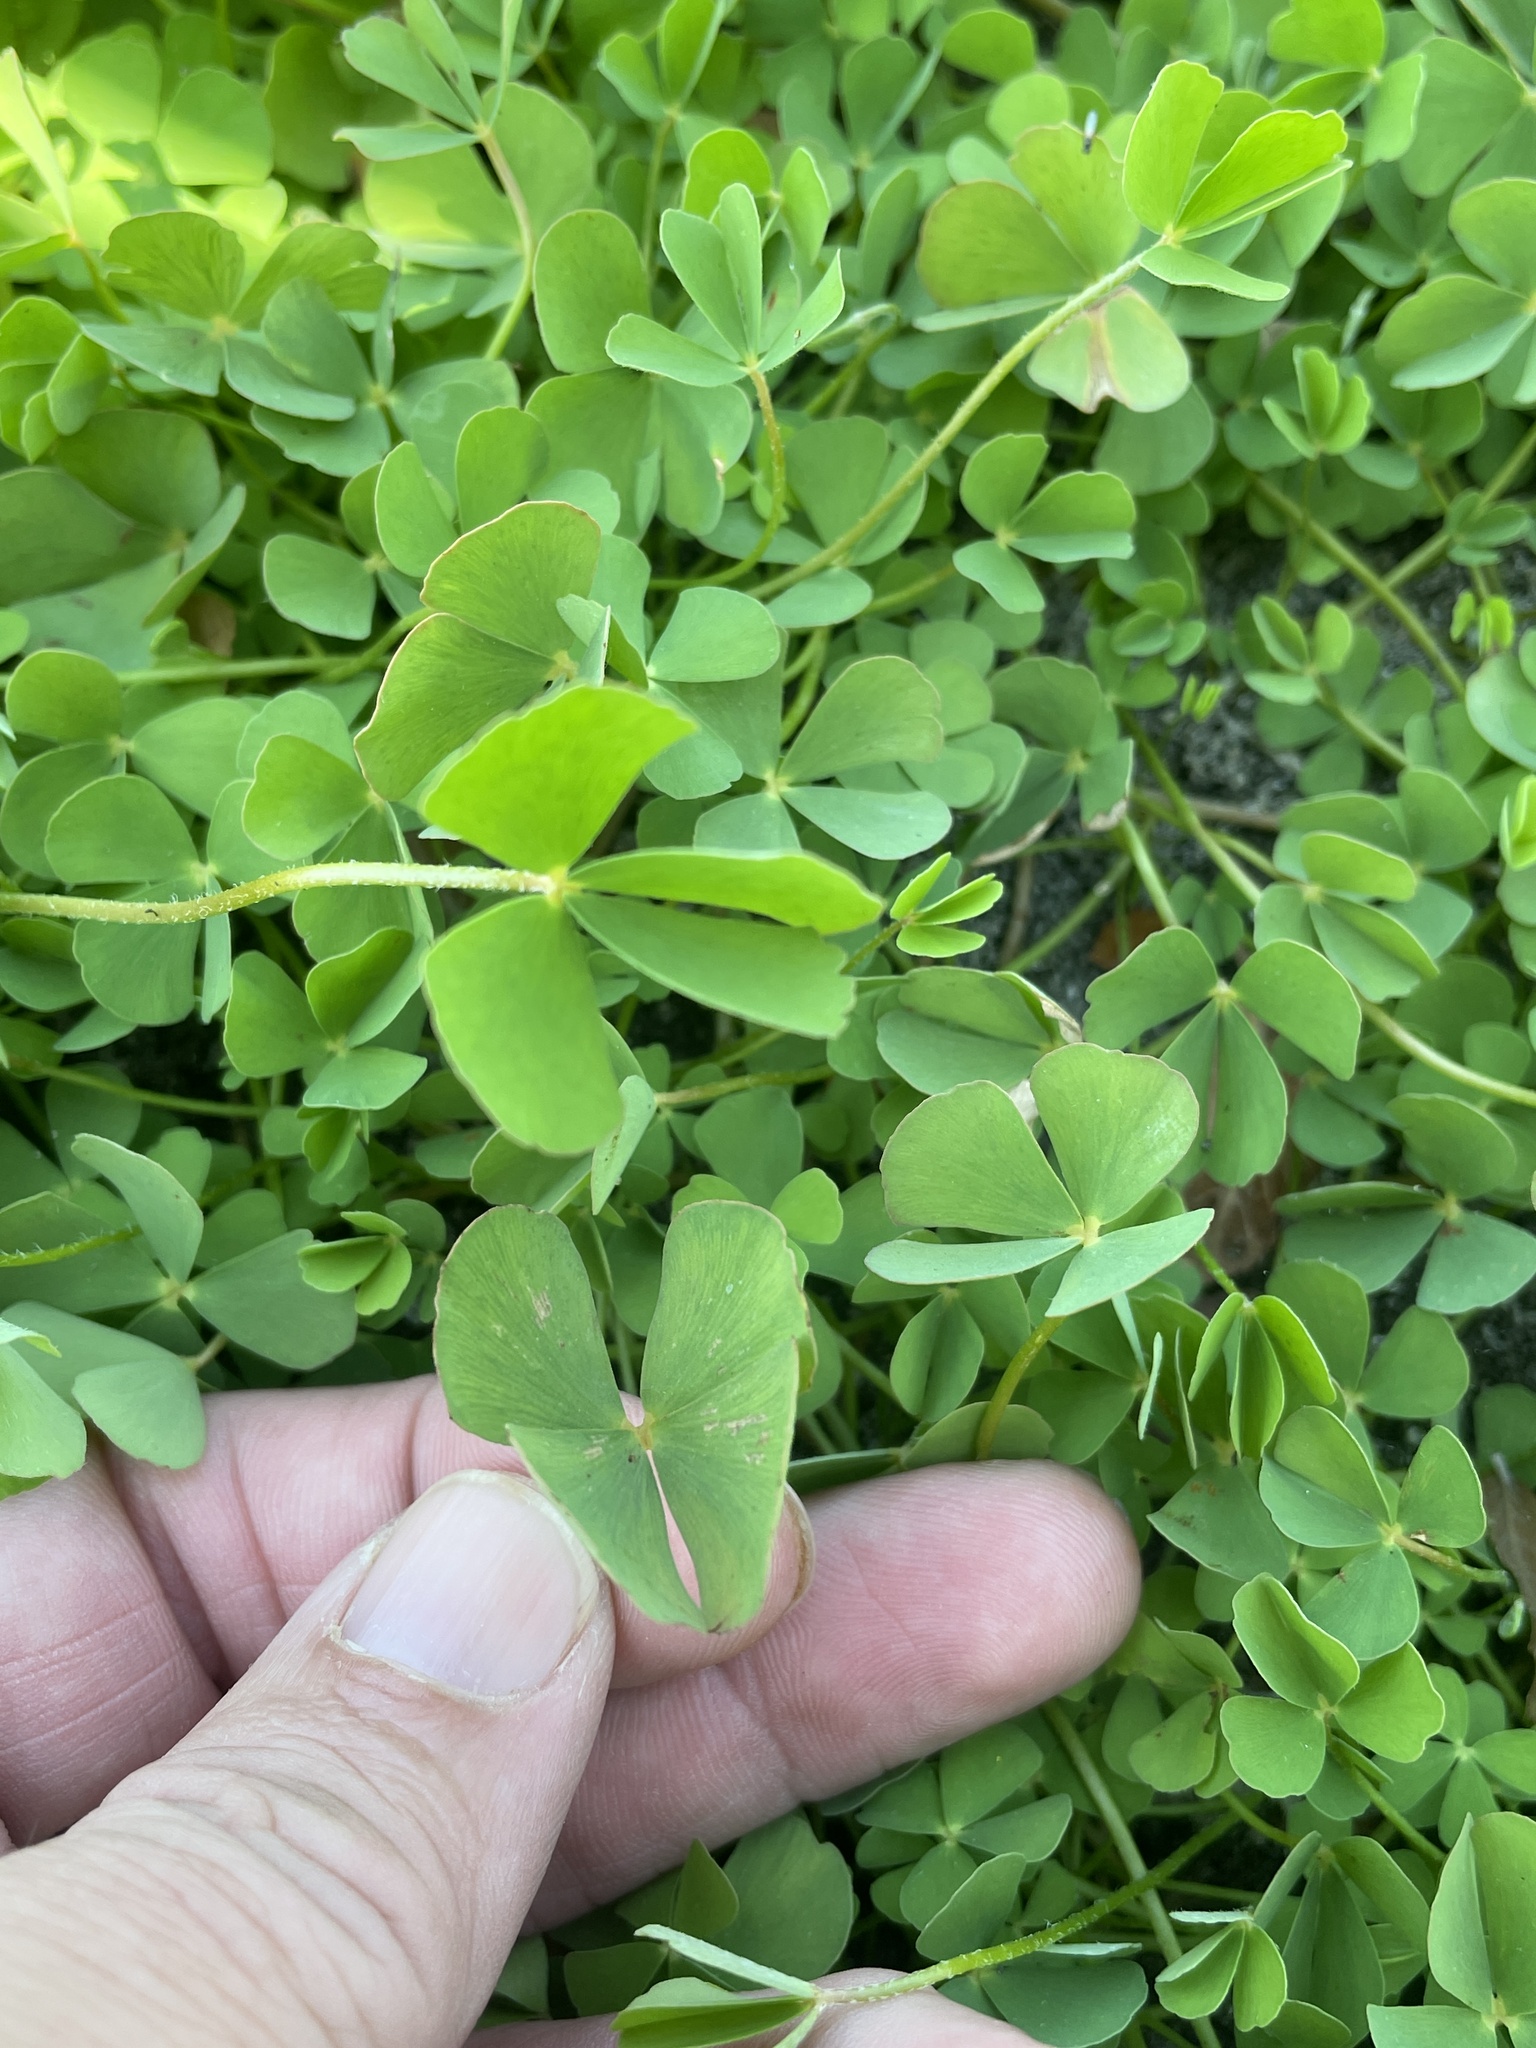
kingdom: Plantae
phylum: Tracheophyta
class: Polypodiopsida
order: Salviniales
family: Marsileaceae
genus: Marsilea
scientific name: Marsilea macropoda
